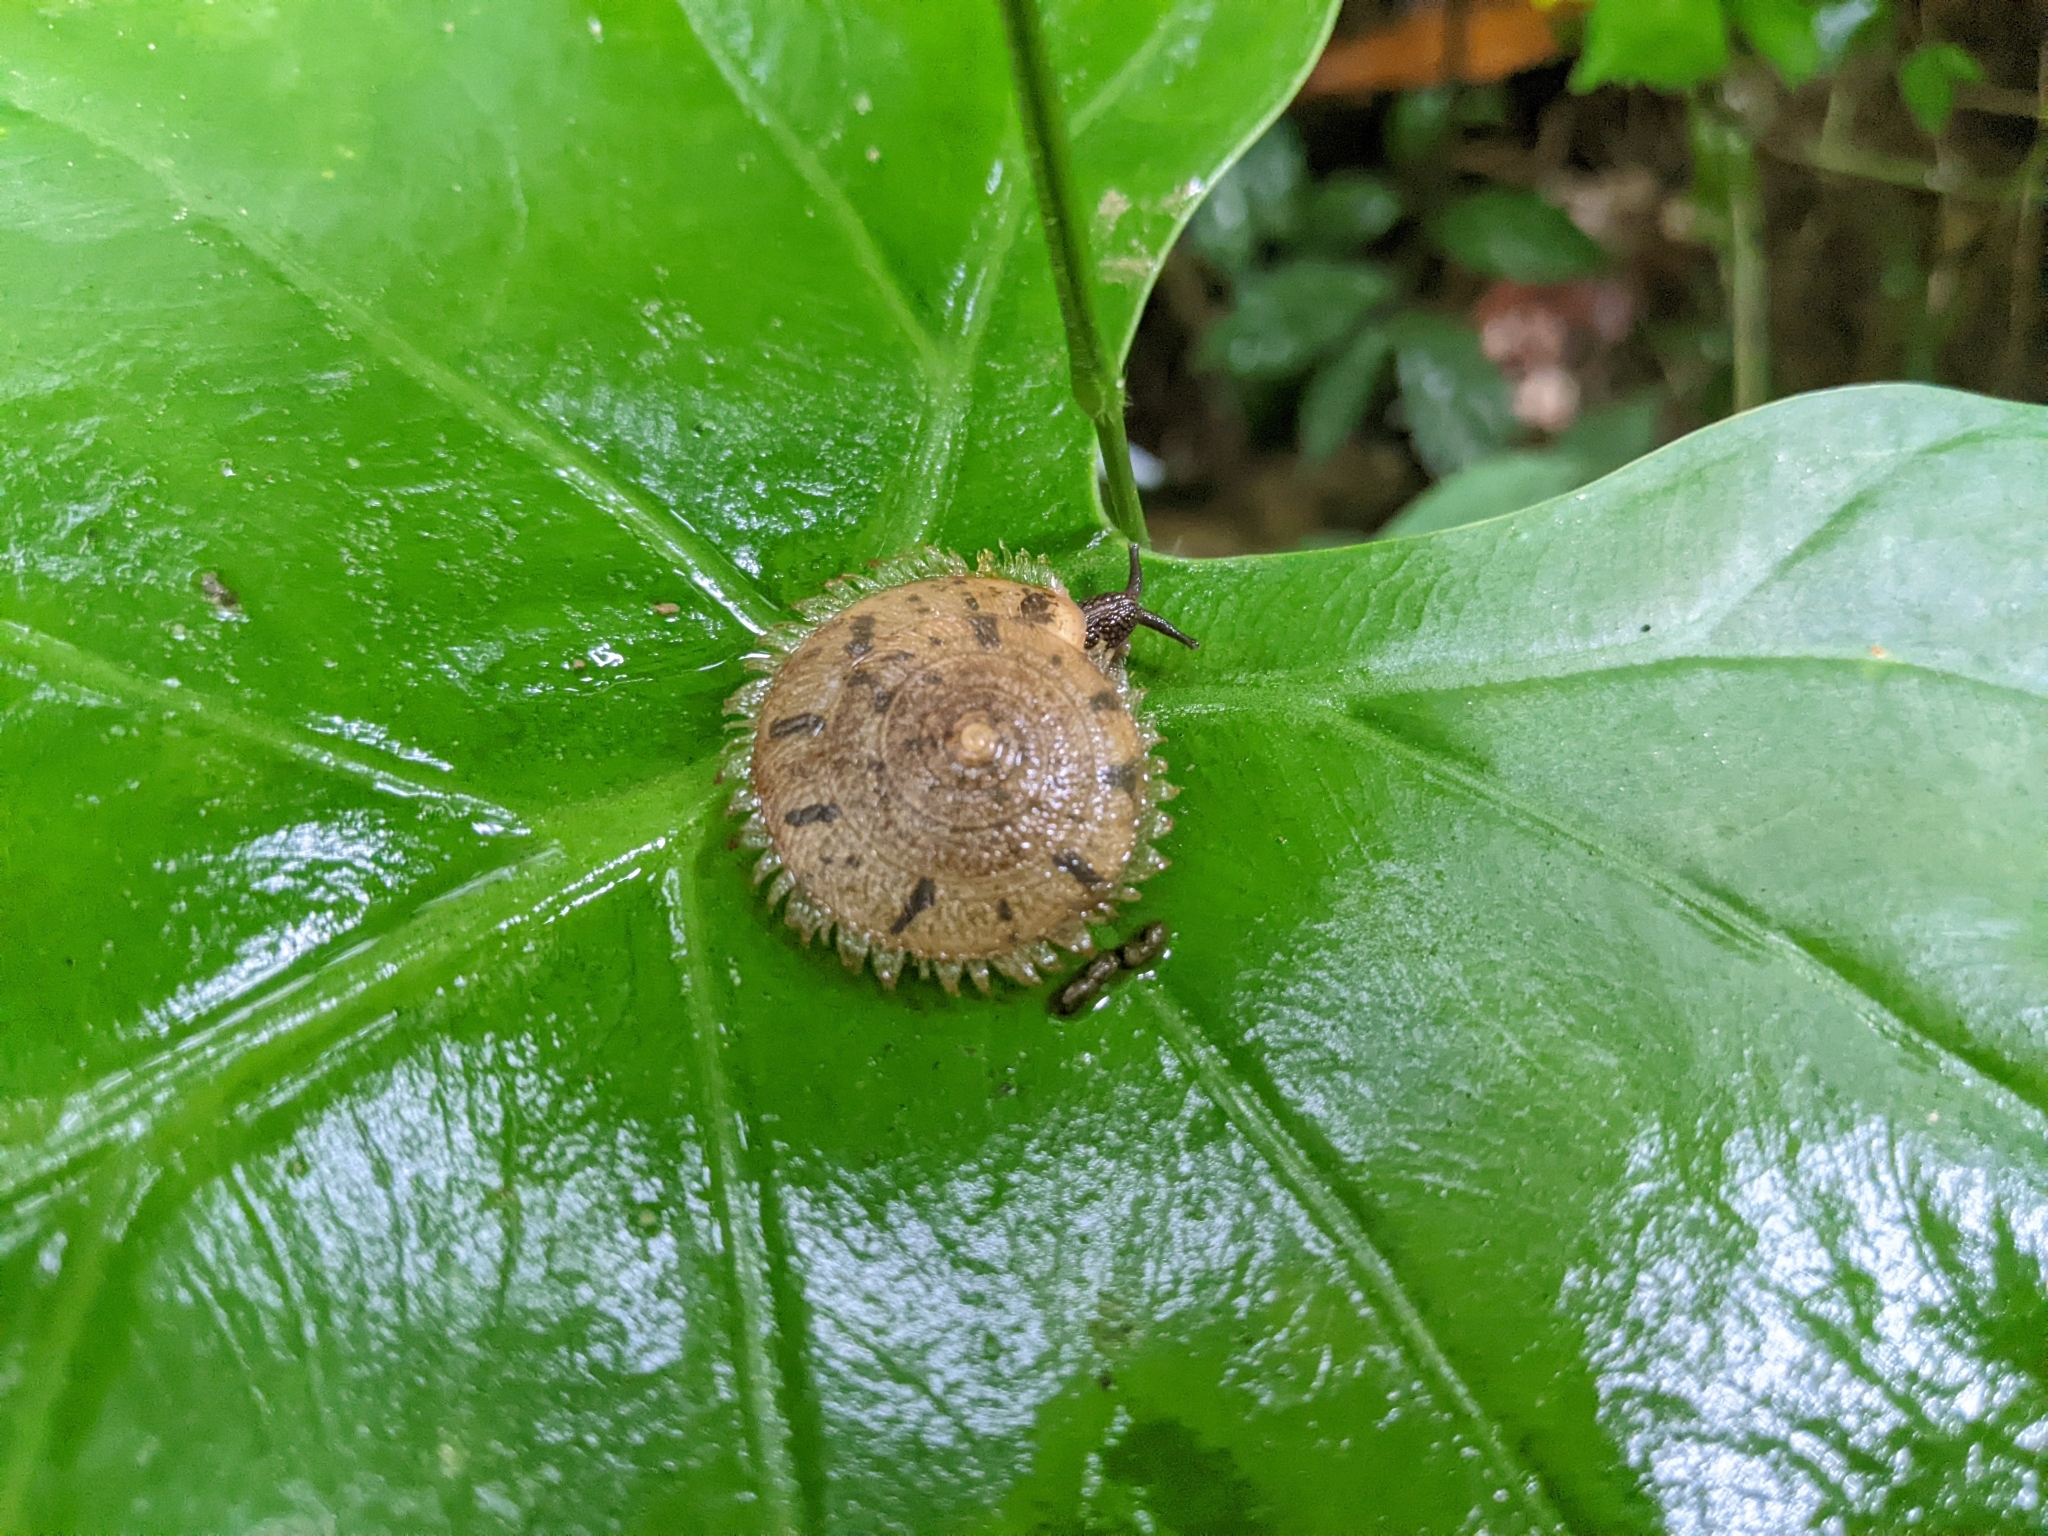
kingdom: Animalia
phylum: Mollusca
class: Gastropoda
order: Stylommatophora
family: Camaenidae
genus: Plectotropis
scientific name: Plectotropis mackensii
